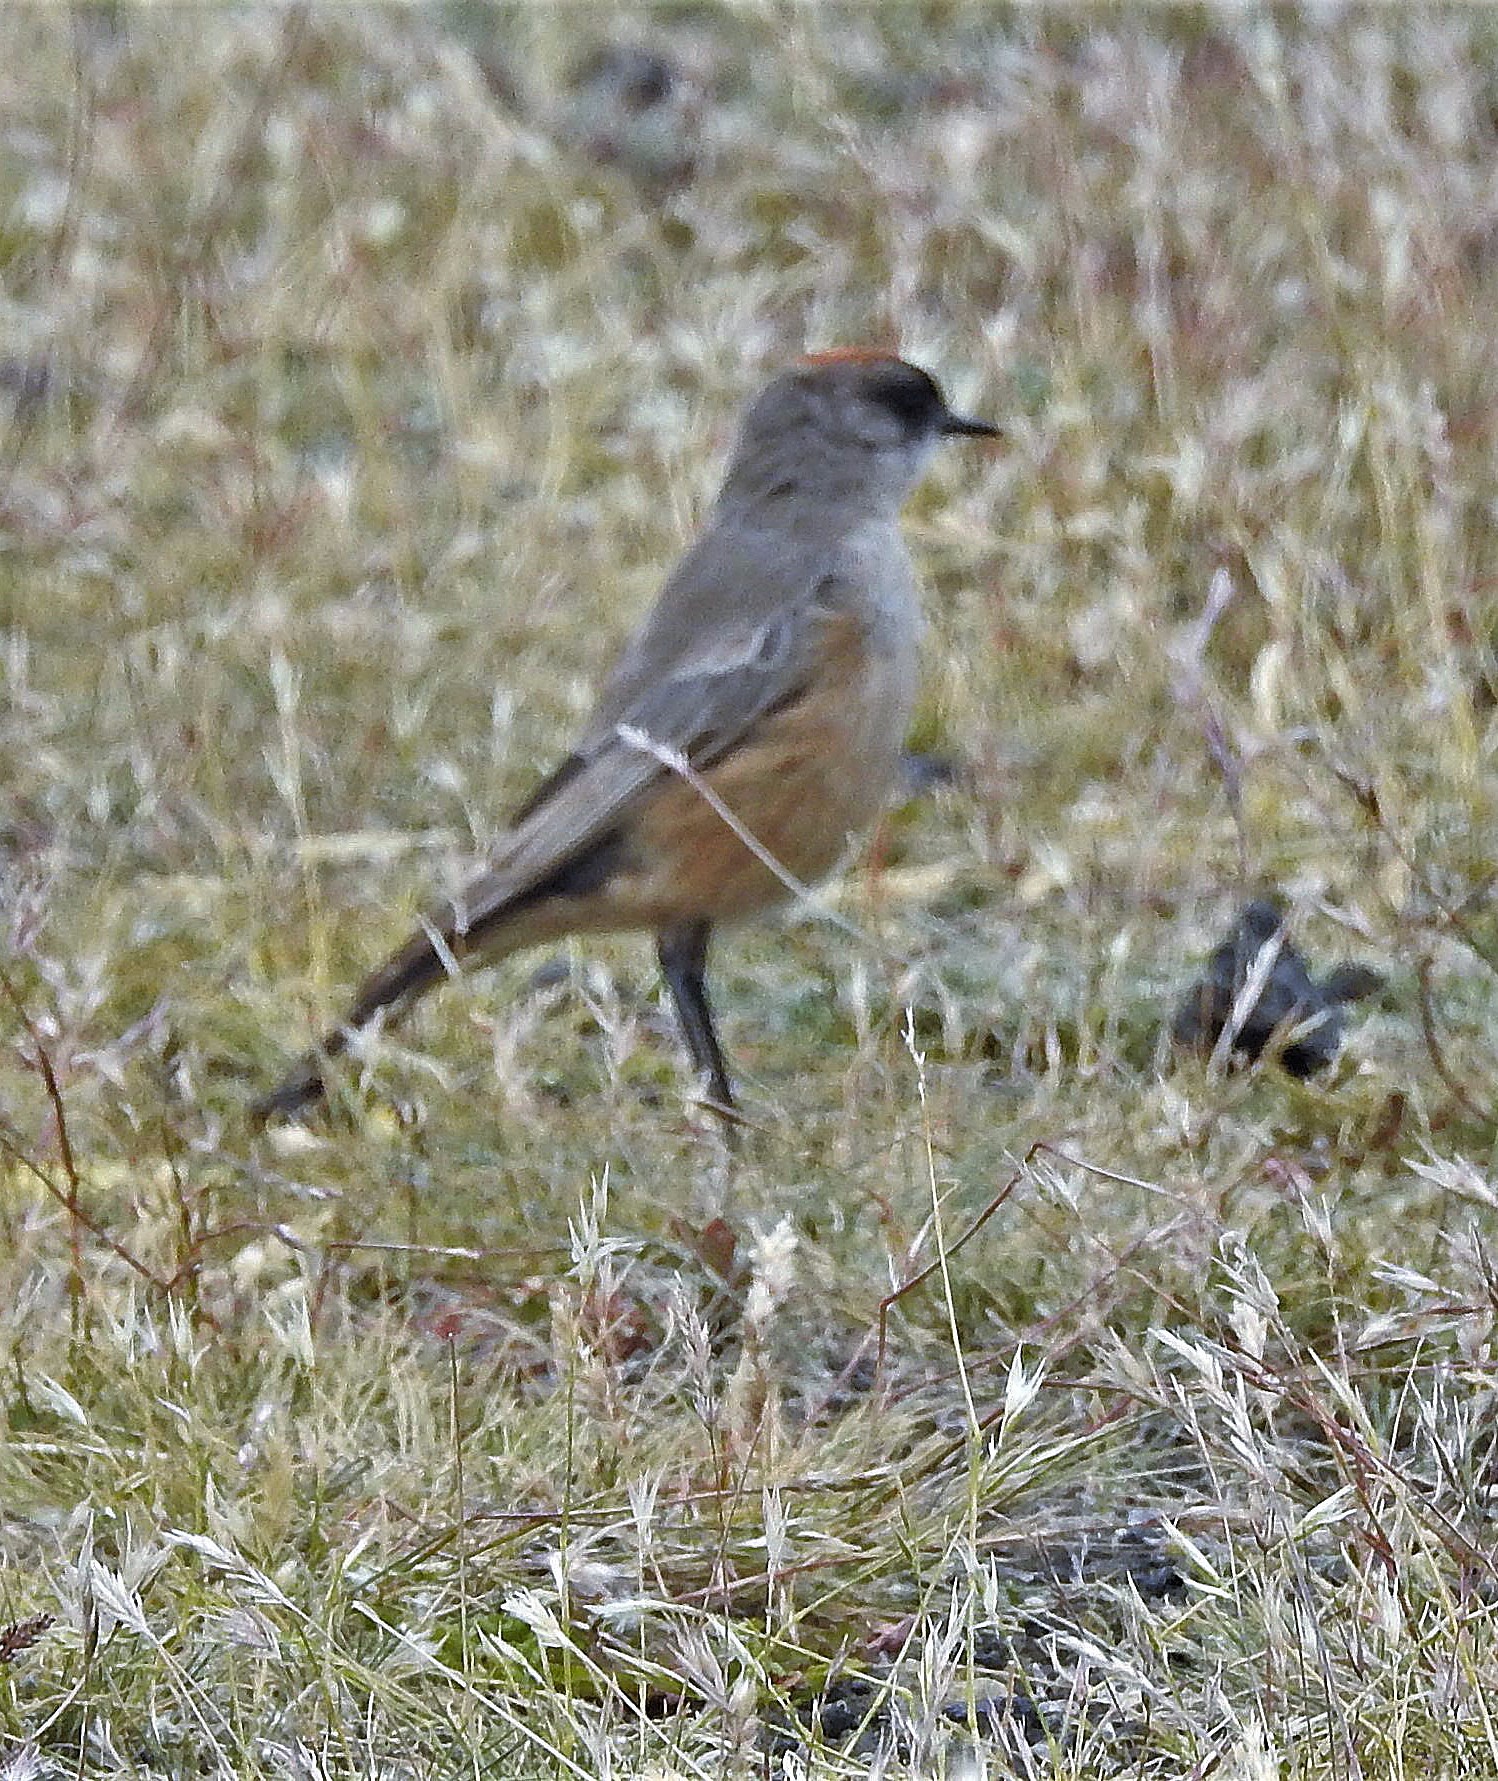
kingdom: Animalia
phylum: Chordata
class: Aves
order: Passeriformes
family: Tyrannidae
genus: Muscisaxicola
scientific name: Muscisaxicola capistratus
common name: Cinnamon-bellied ground tyrant
